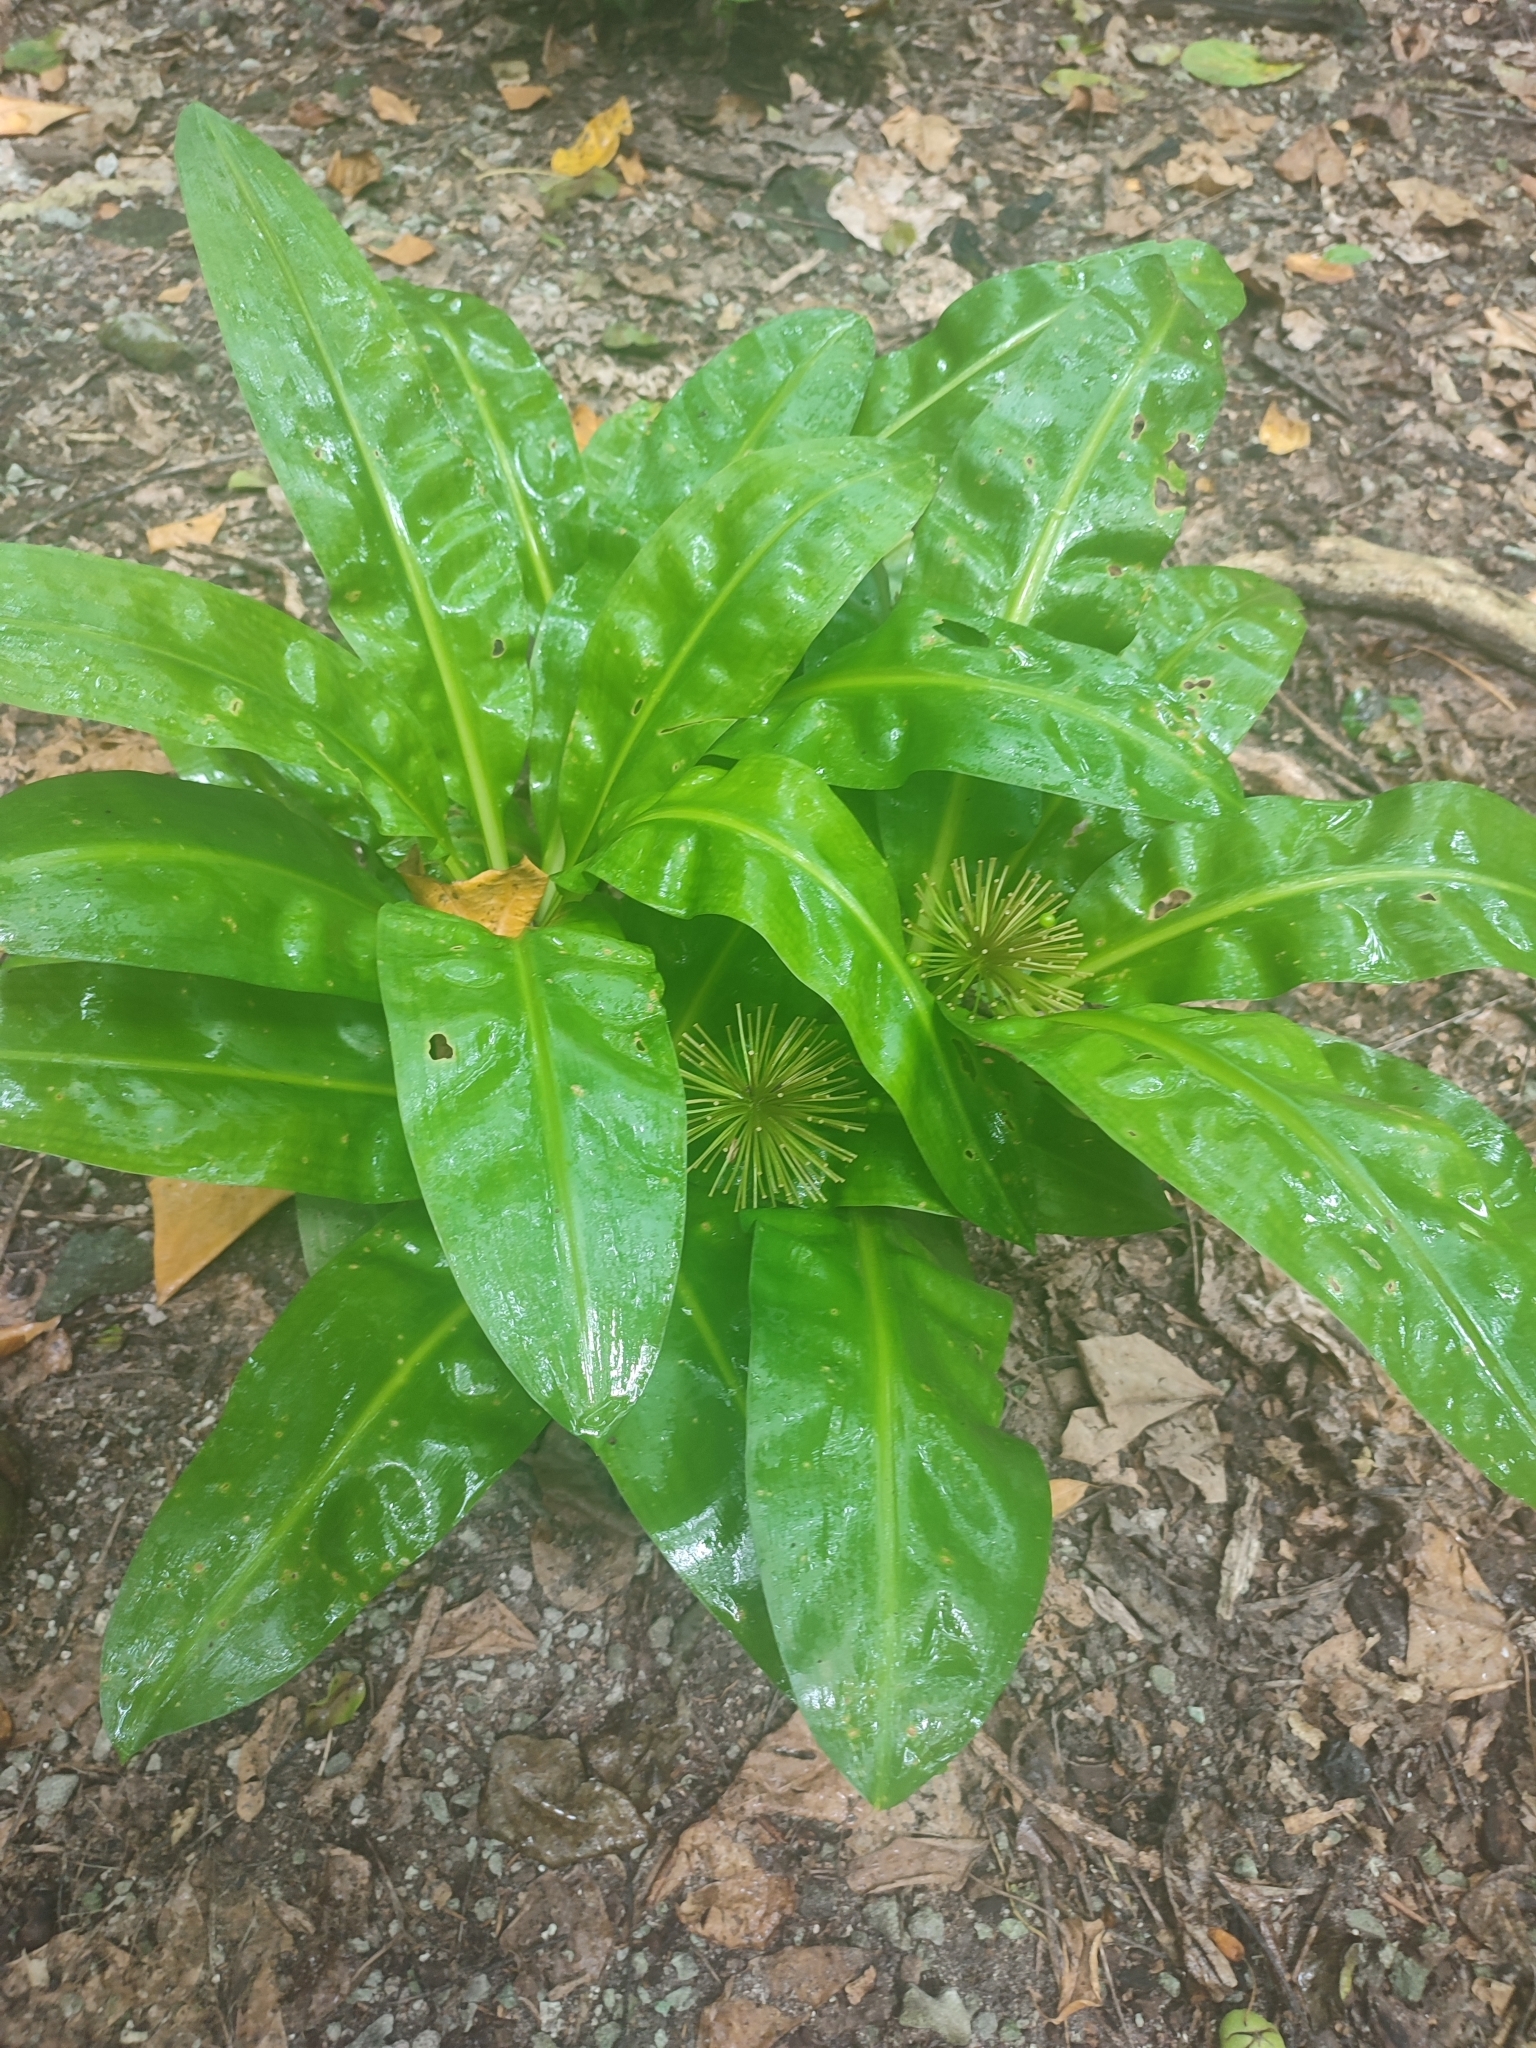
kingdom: Plantae
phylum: Tracheophyta
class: Liliopsida
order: Asparagales
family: Amaryllidaceae
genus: Scadoxus
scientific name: Scadoxus multiflorus
